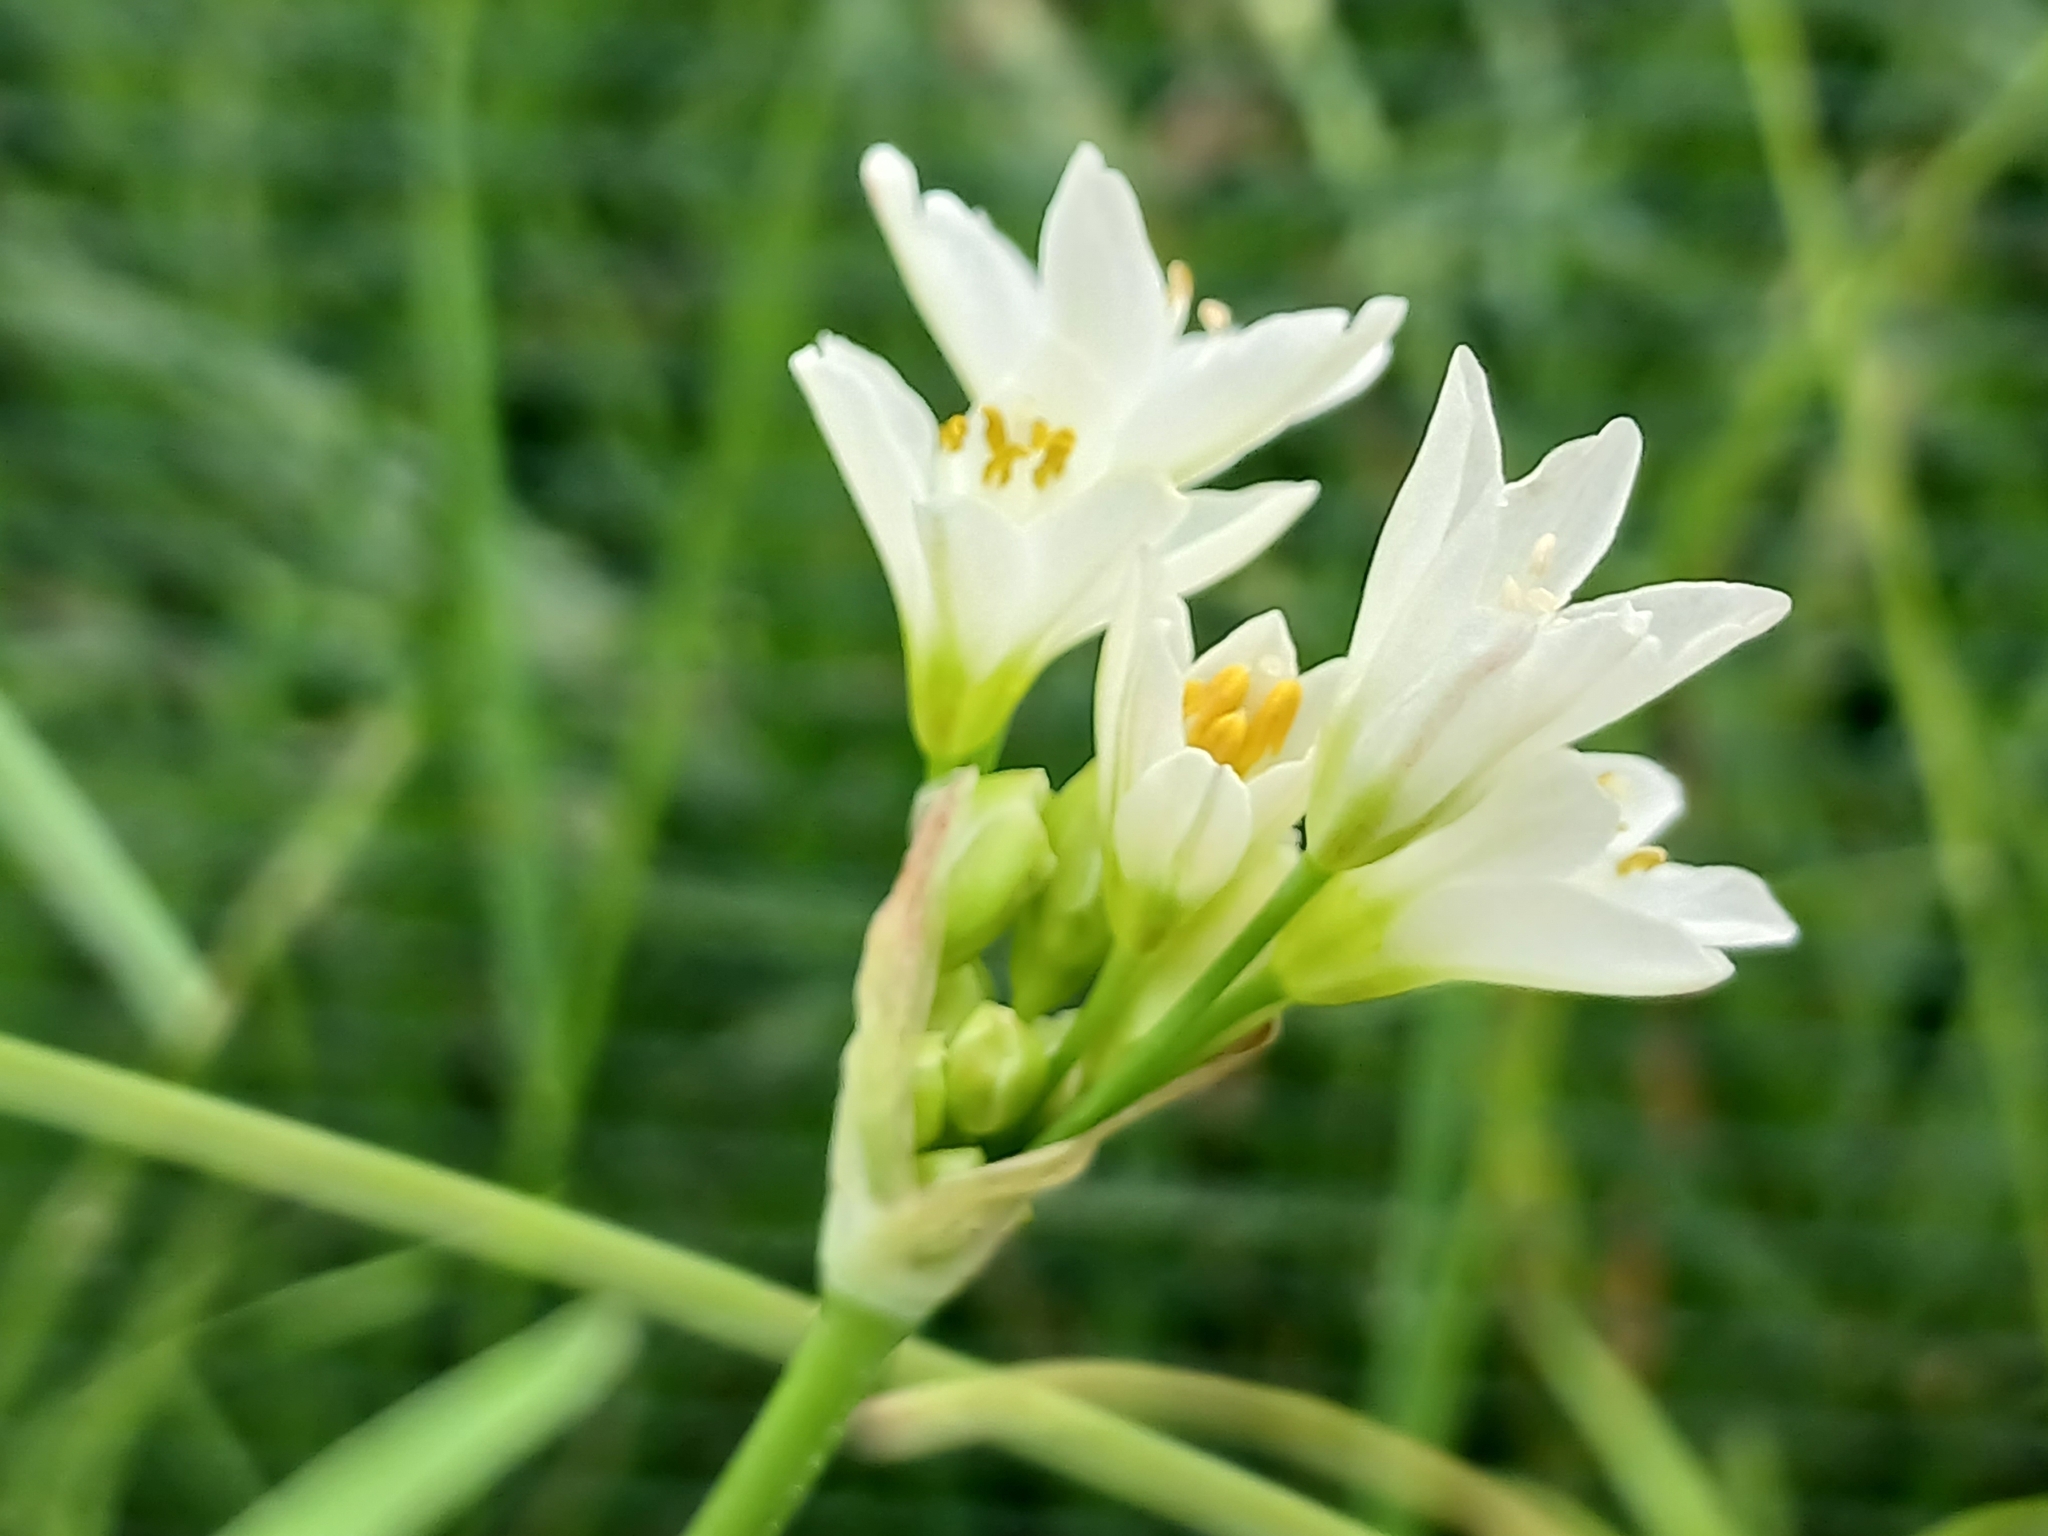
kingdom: Plantae
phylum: Tracheophyta
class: Liliopsida
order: Asparagales
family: Amaryllidaceae
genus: Nothoscordum
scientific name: Nothoscordum gracile
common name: Slender false garlic
